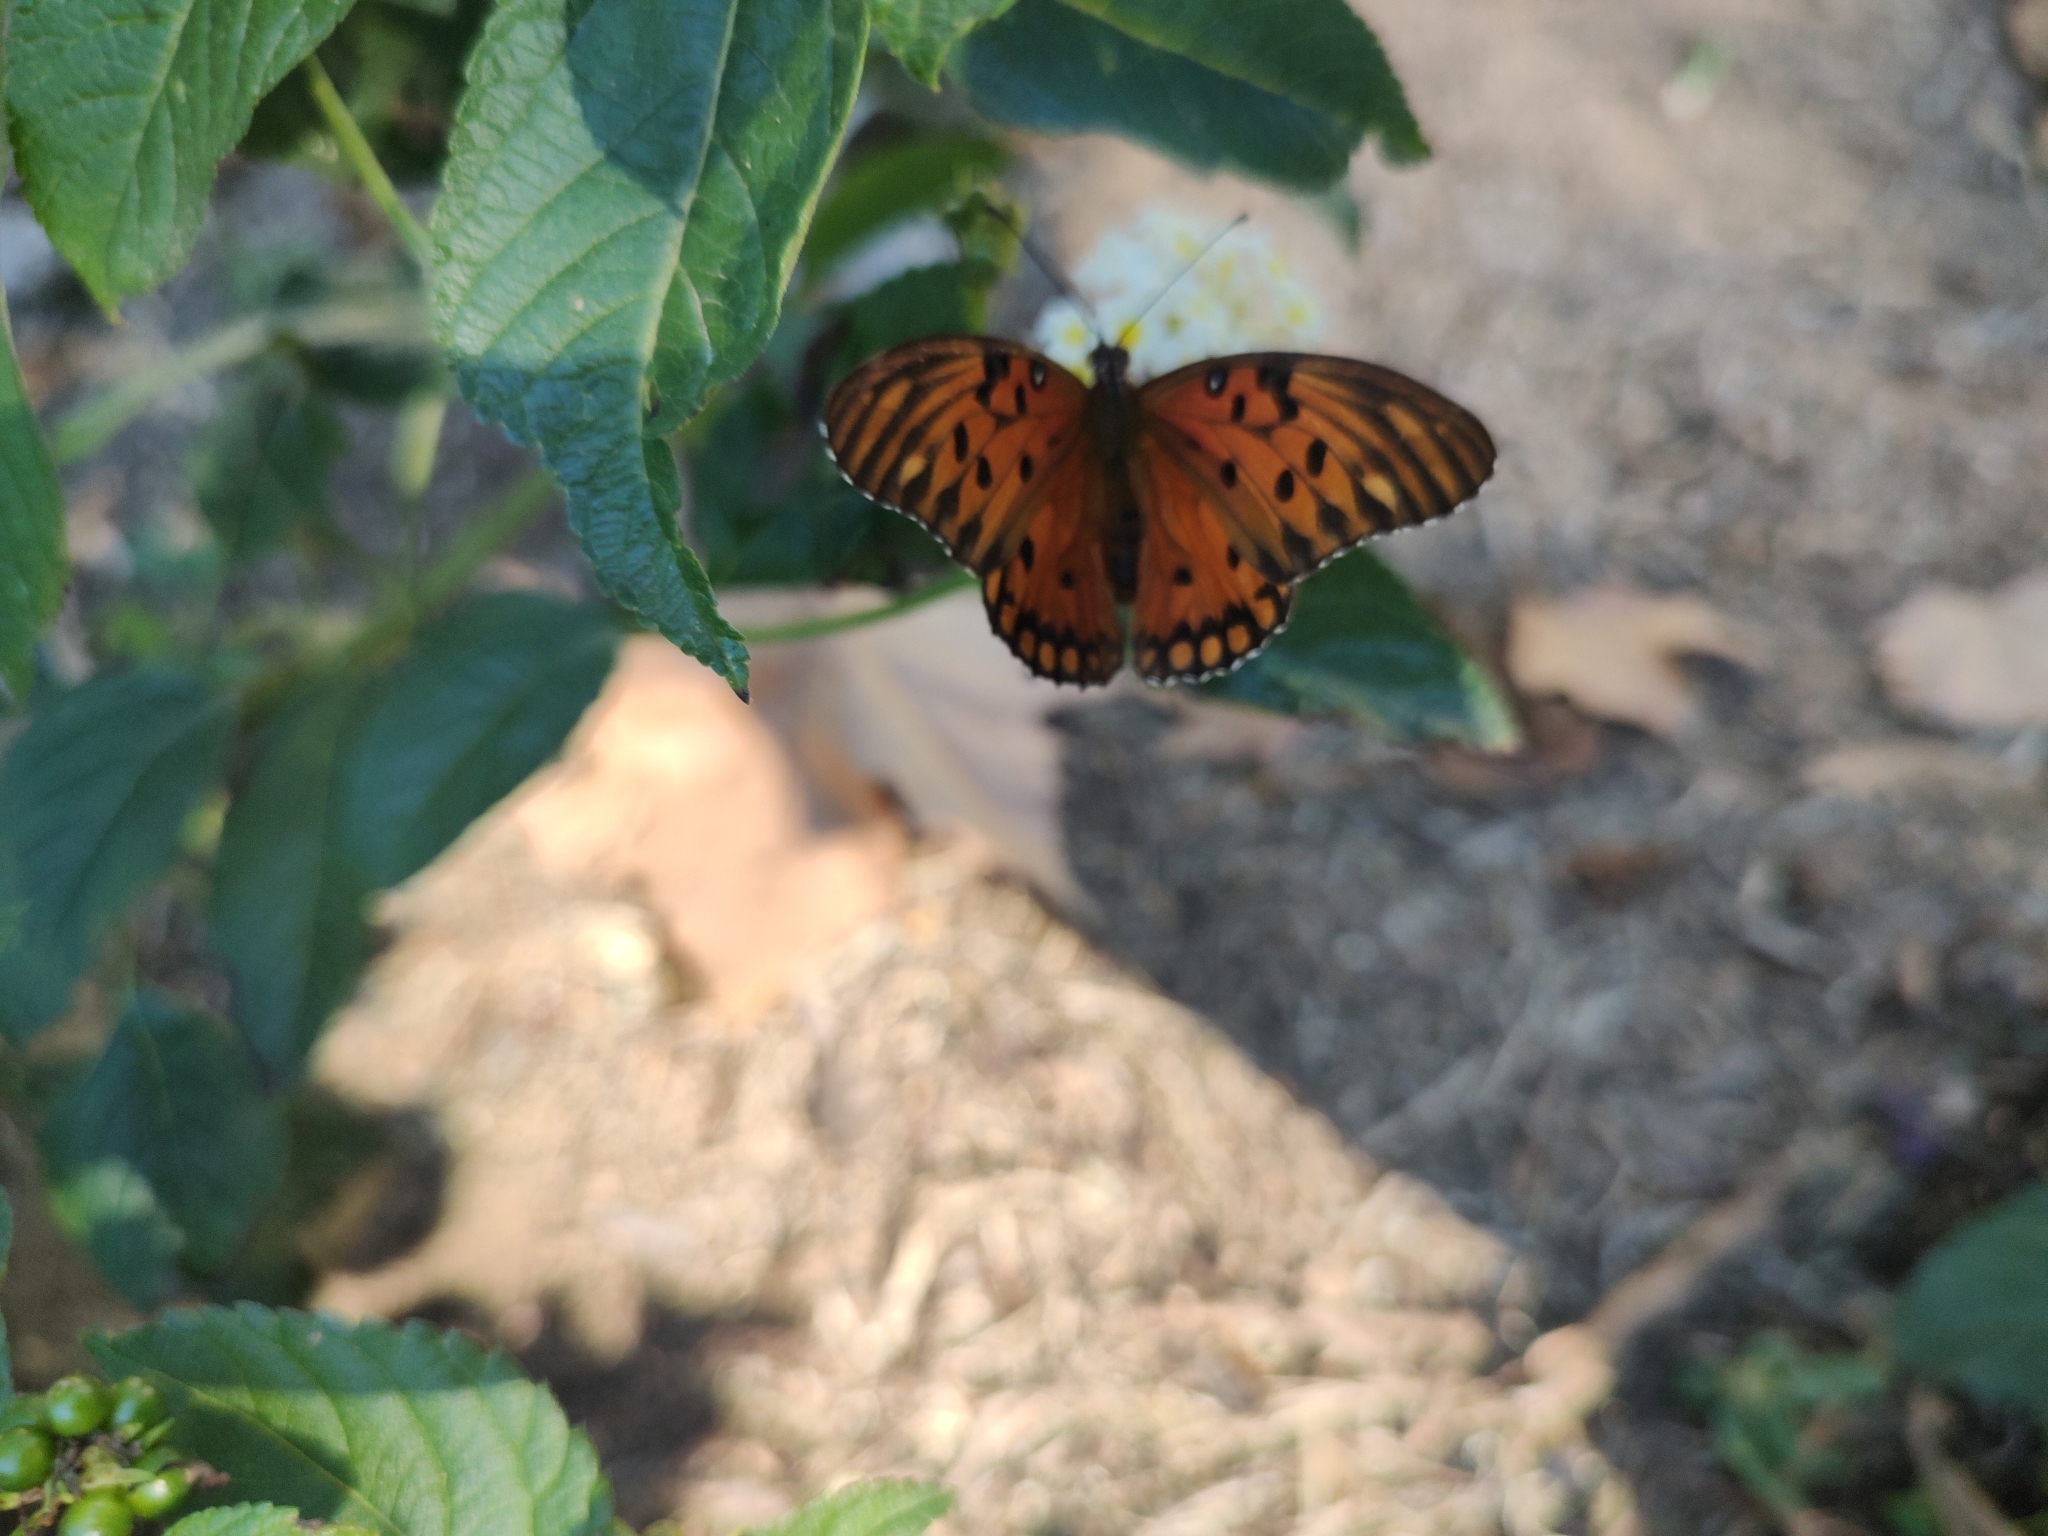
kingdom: Animalia
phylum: Arthropoda
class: Insecta
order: Lepidoptera
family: Nymphalidae
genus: Dione
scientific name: Dione vanillae
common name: Gulf fritillary
